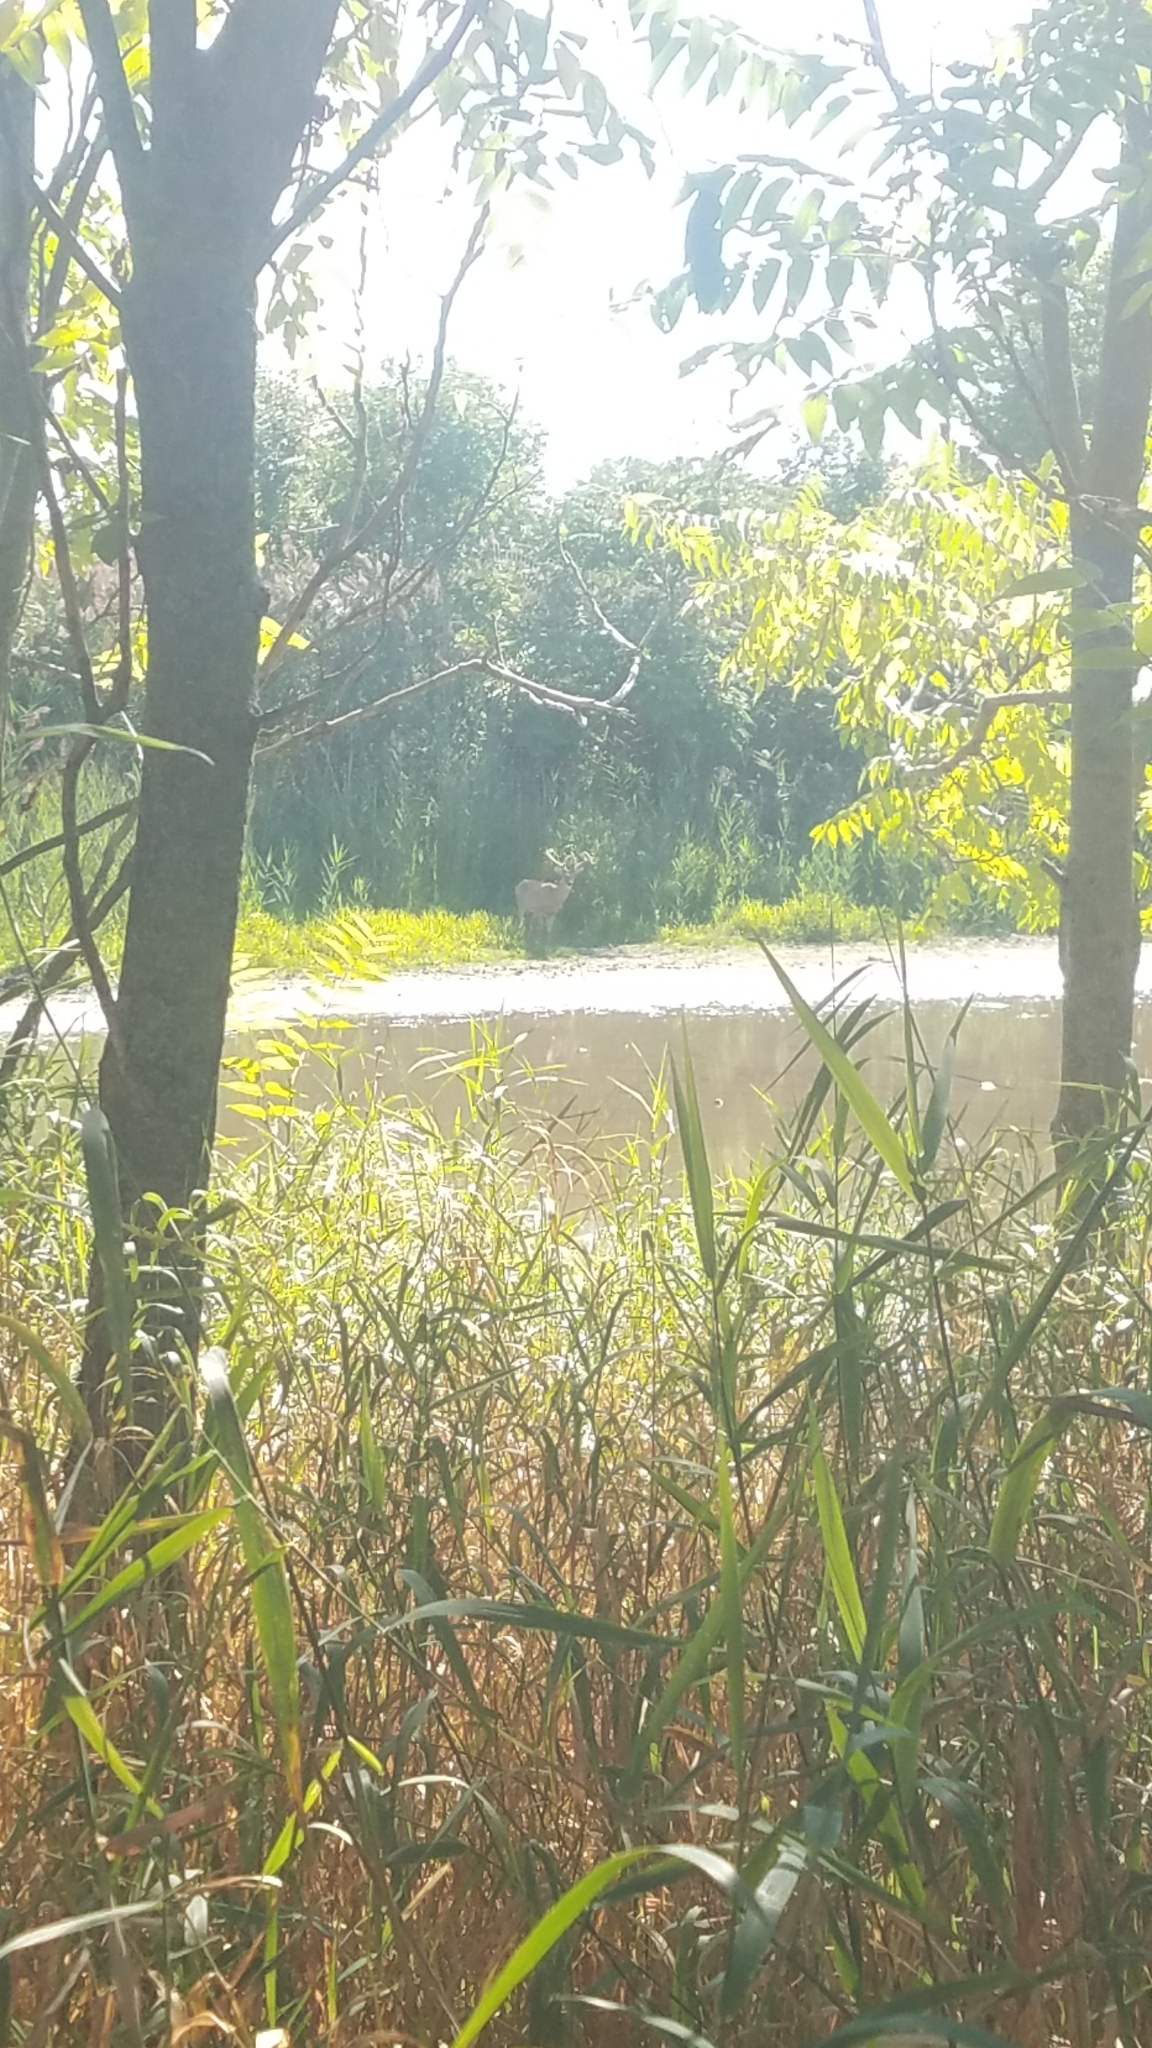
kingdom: Animalia
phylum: Chordata
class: Mammalia
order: Artiodactyla
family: Cervidae
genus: Odocoileus
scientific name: Odocoileus virginianus
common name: White-tailed deer
